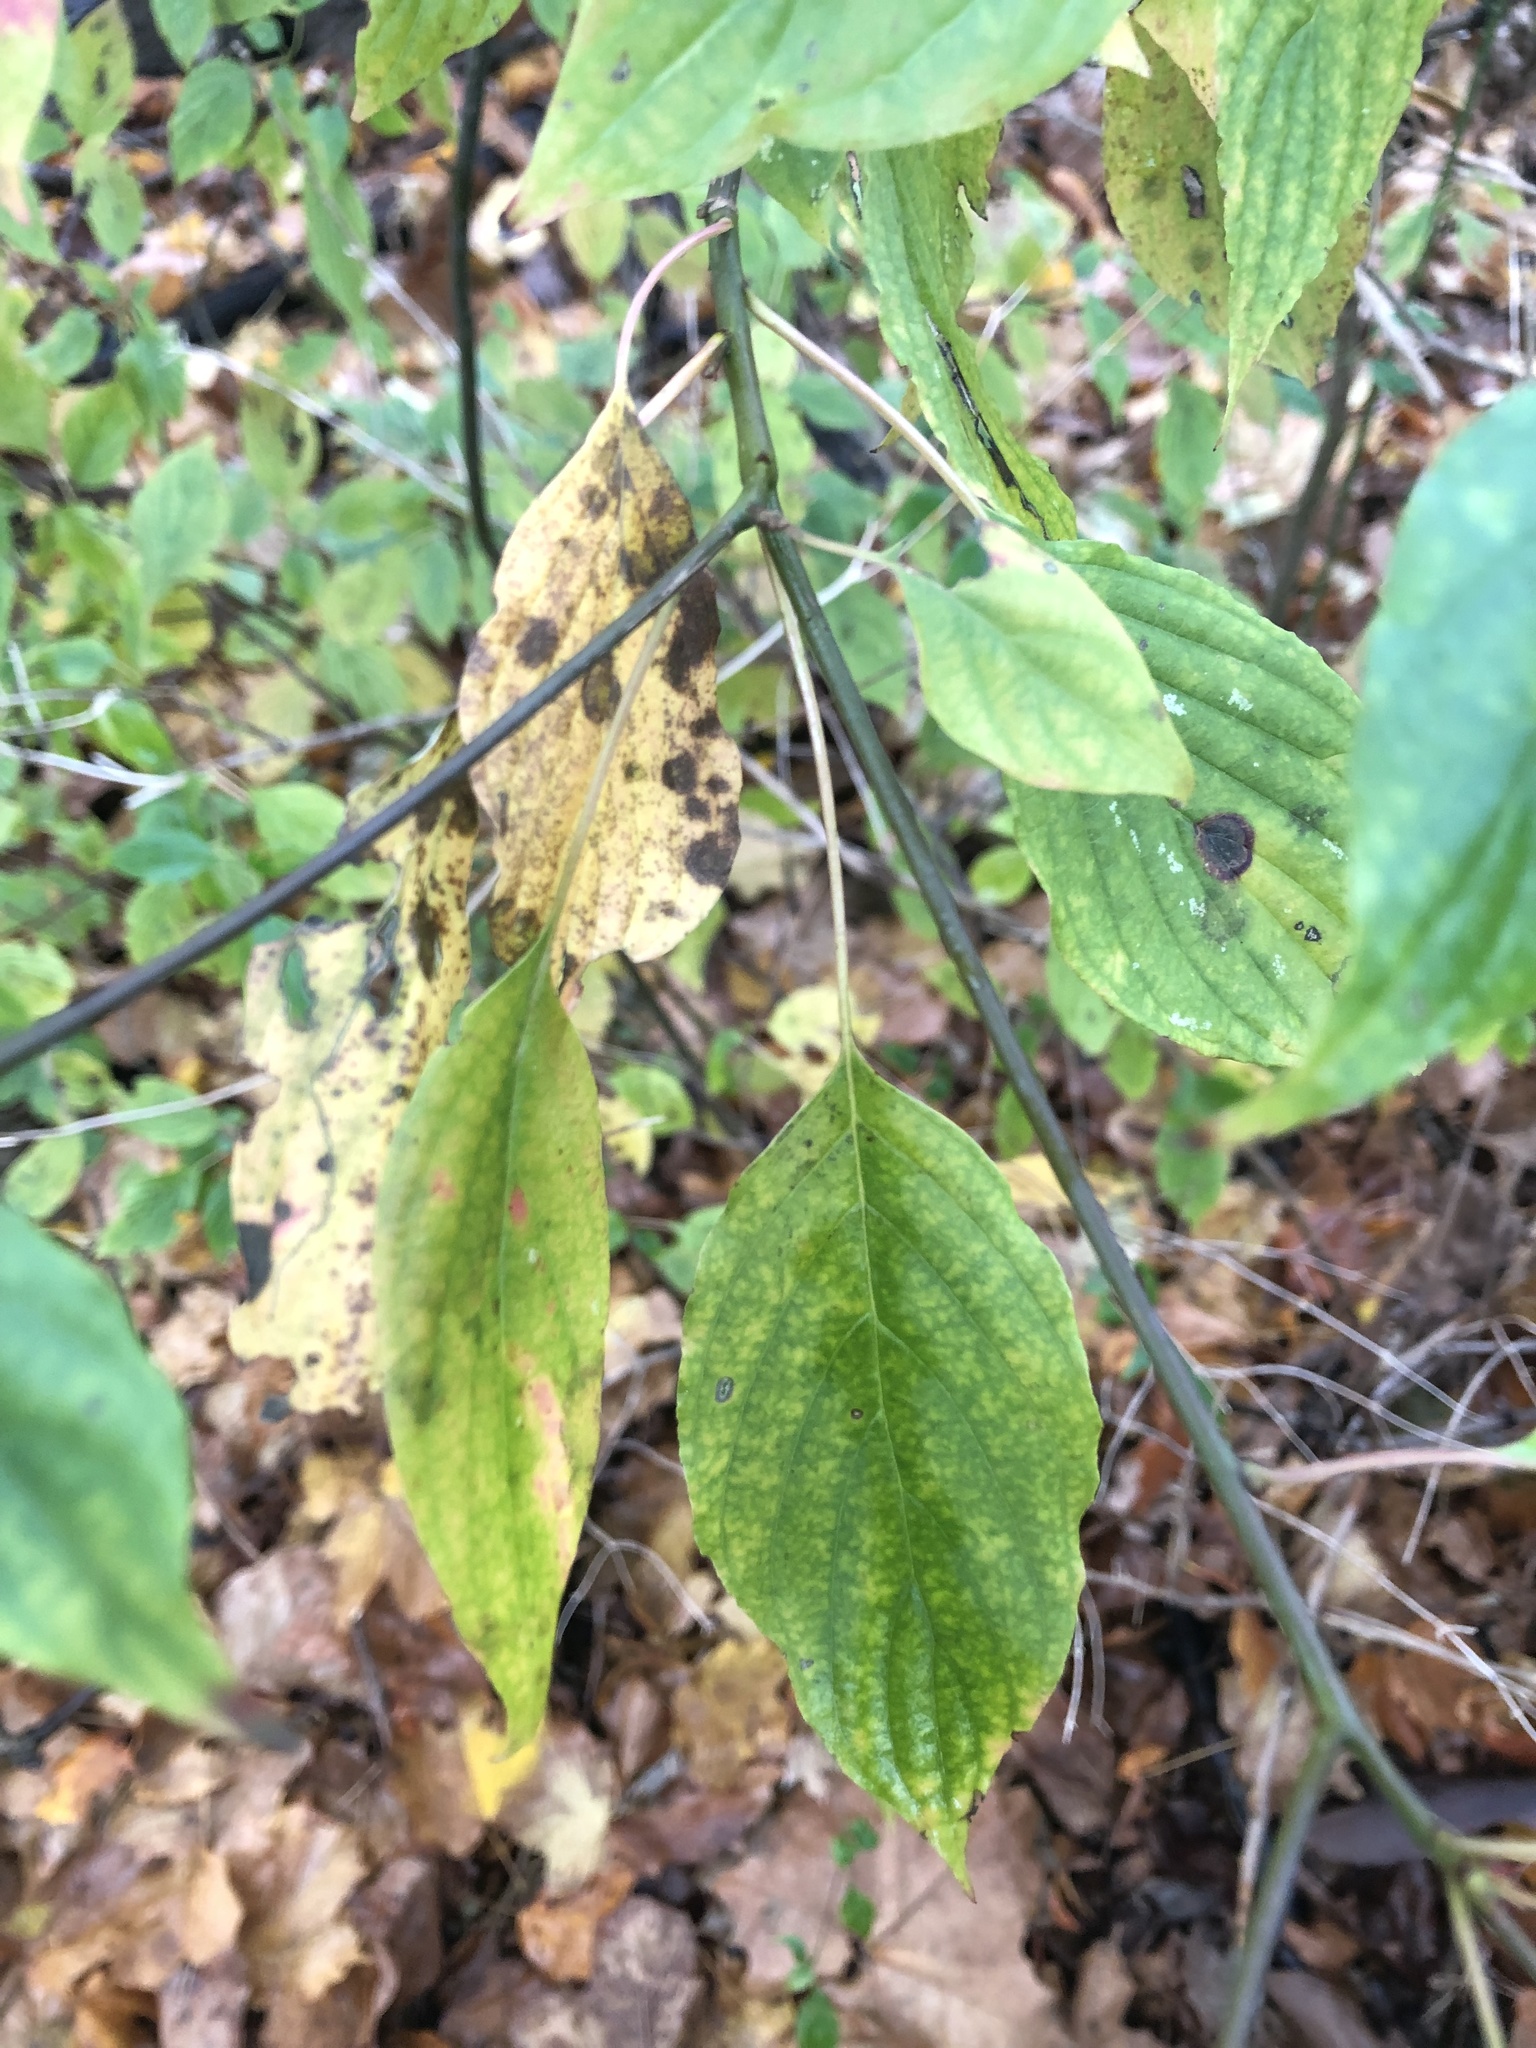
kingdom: Plantae
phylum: Tracheophyta
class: Magnoliopsida
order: Cornales
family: Cornaceae
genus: Cornus
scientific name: Cornus alternifolia
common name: Pagoda dogwood
